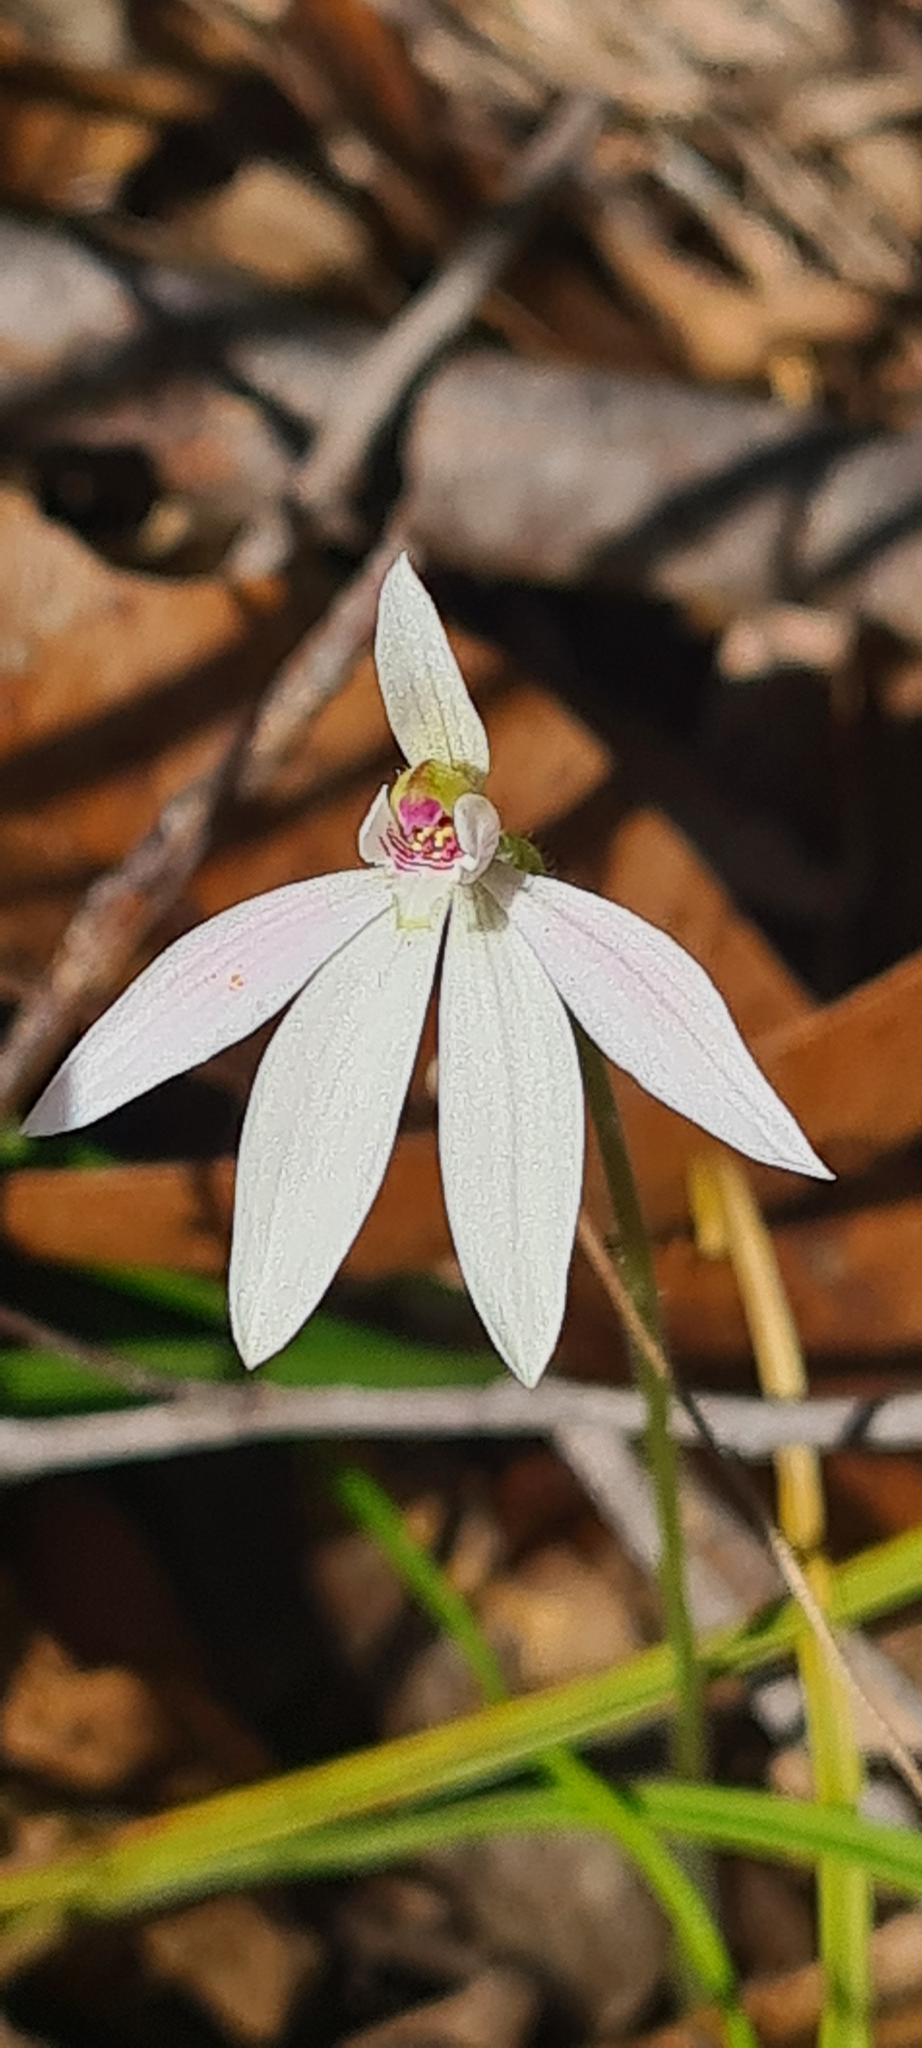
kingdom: Plantae
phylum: Tracheophyta
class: Liliopsida
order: Asparagales
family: Orchidaceae
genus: Caladenia
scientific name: Caladenia carnea
